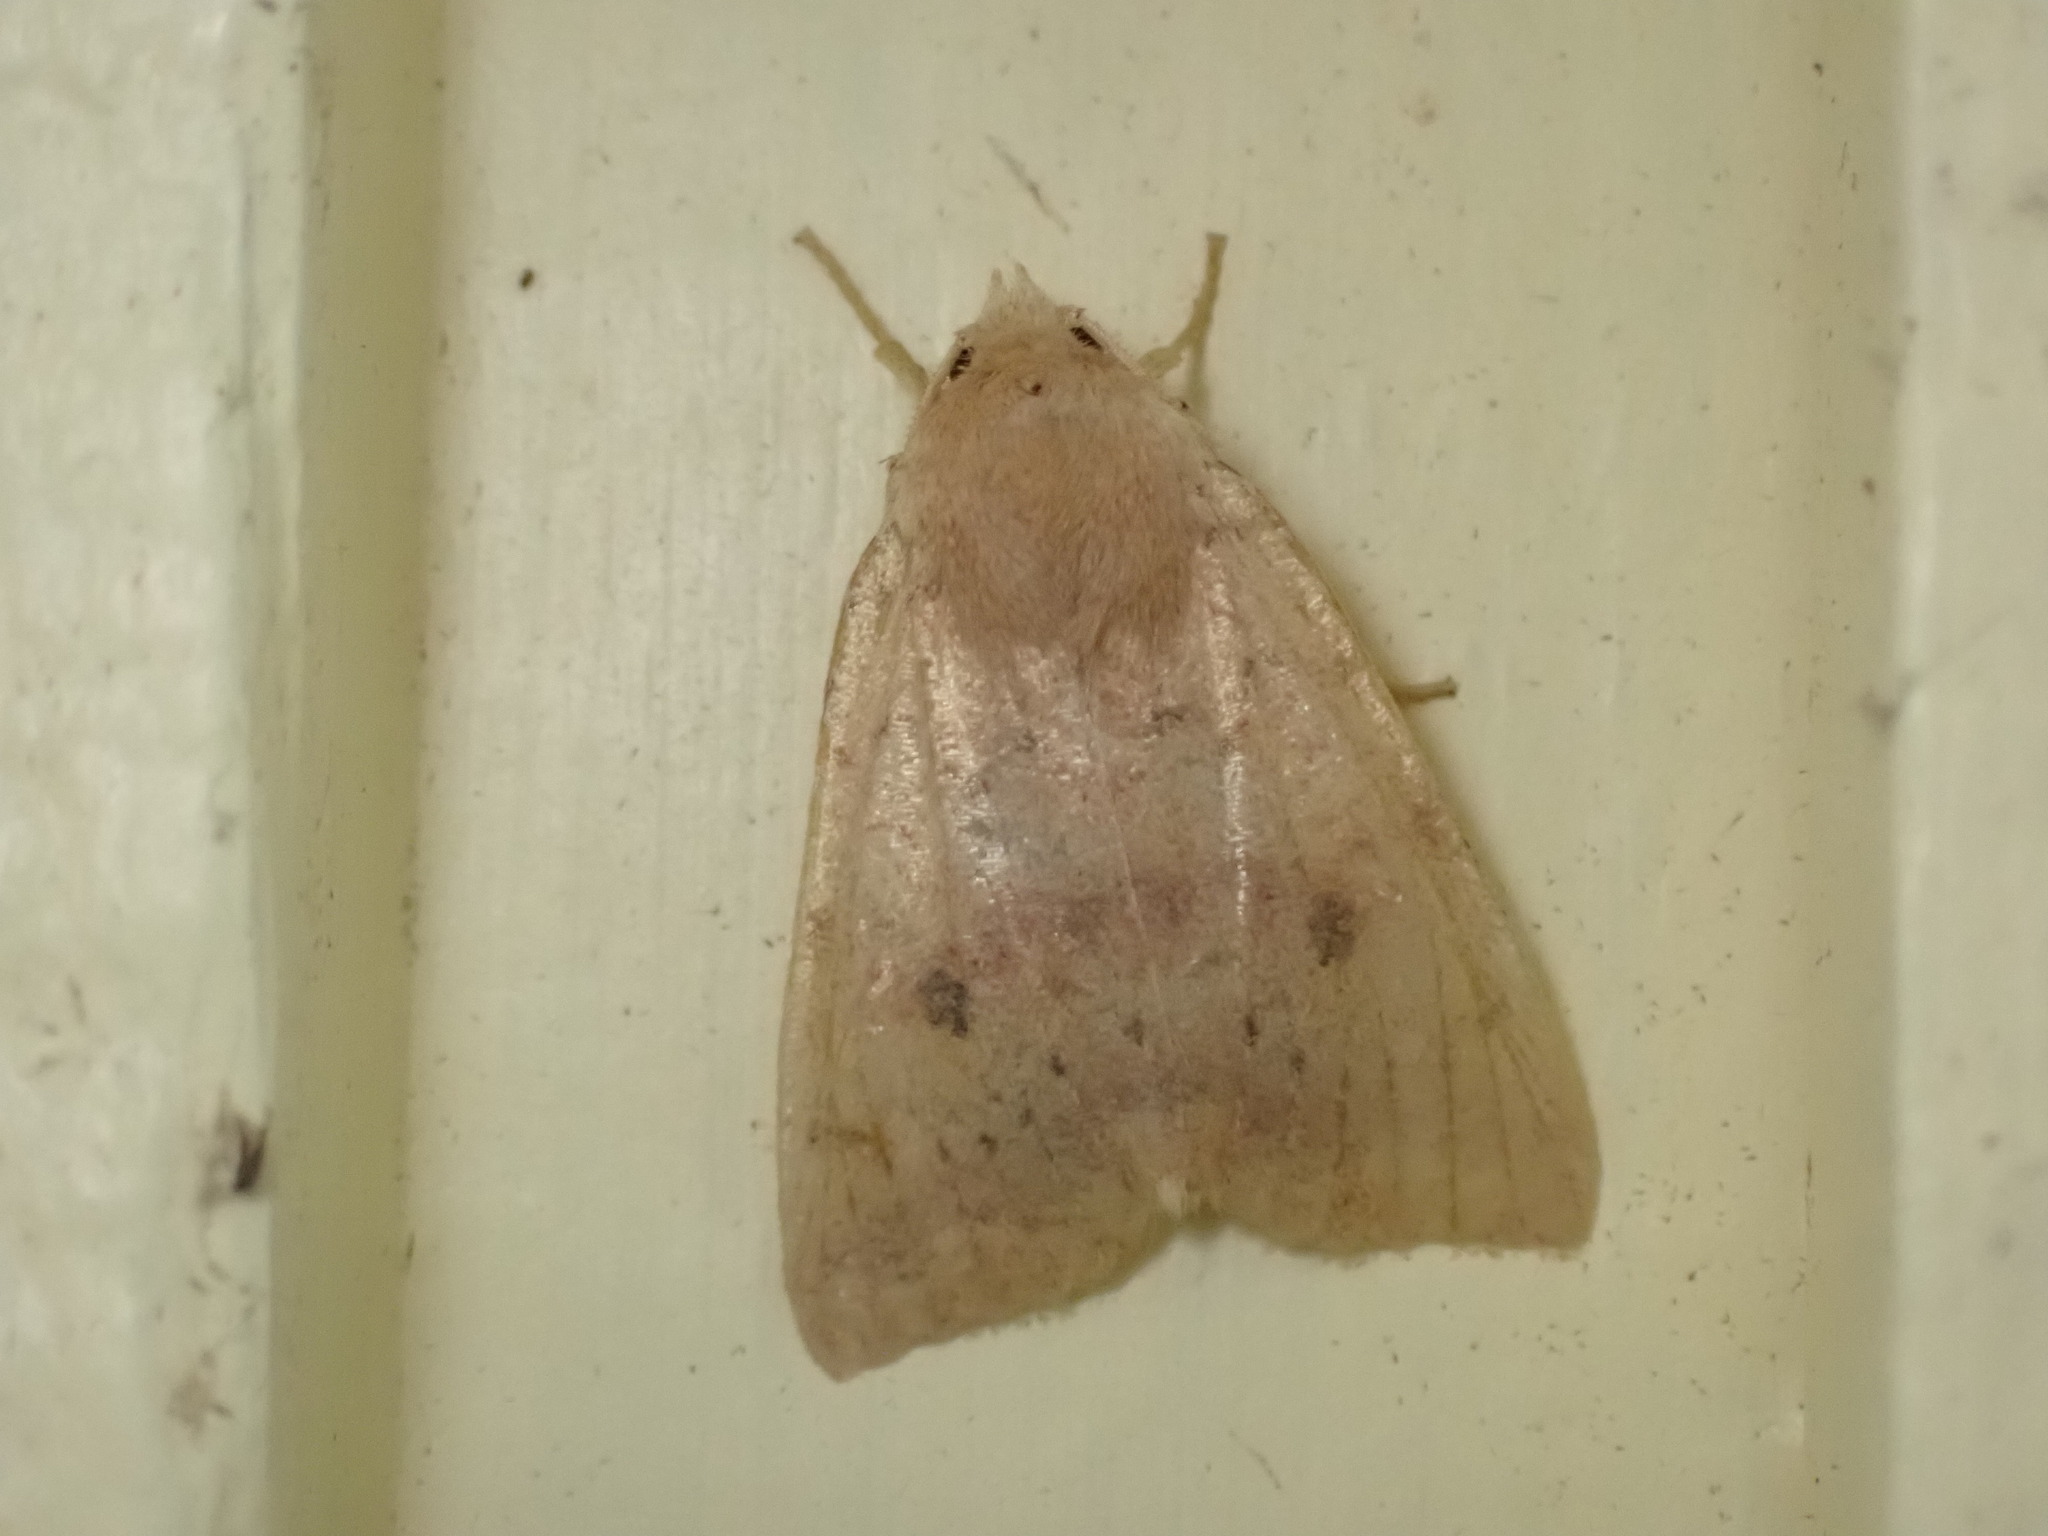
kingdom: Animalia
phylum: Arthropoda
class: Insecta
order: Lepidoptera
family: Noctuidae
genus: Agrochola
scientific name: Agrochola bicolorago
